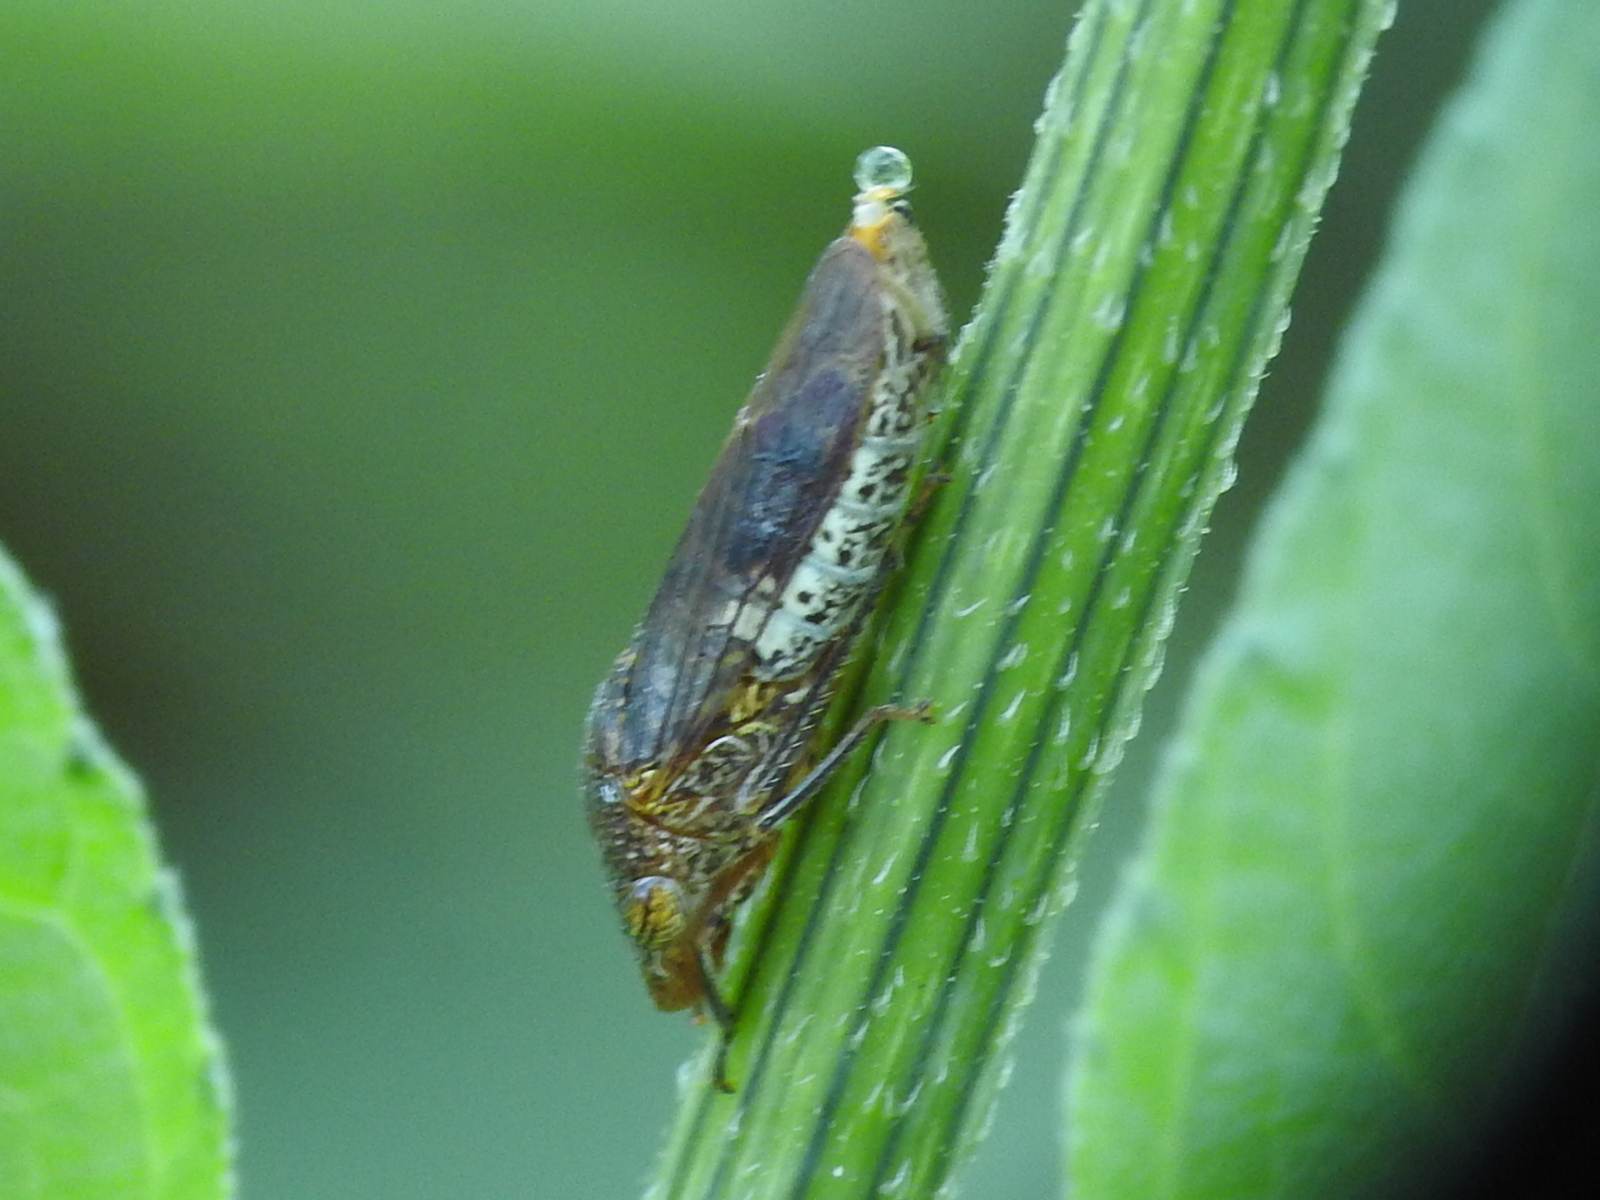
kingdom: Animalia
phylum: Arthropoda
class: Insecta
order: Hemiptera
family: Cicadellidae
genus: Homalodisca
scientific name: Homalodisca vitripennis
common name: Glassy-winged sharpshooter
